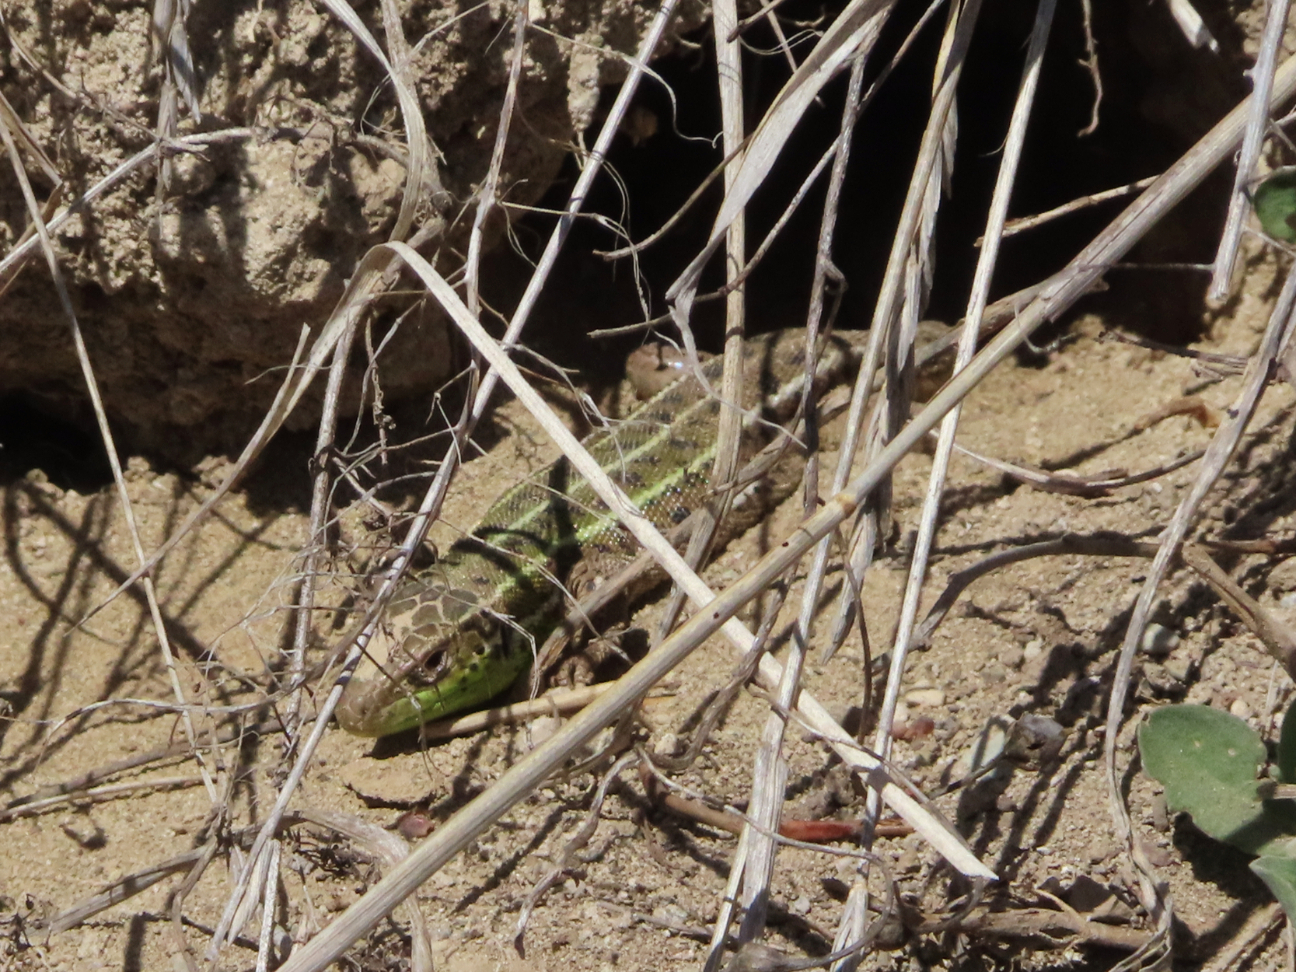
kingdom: Animalia
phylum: Chordata
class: Squamata
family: Lacertidae
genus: Lacerta
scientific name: Lacerta strigata
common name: Caspian green lizard
